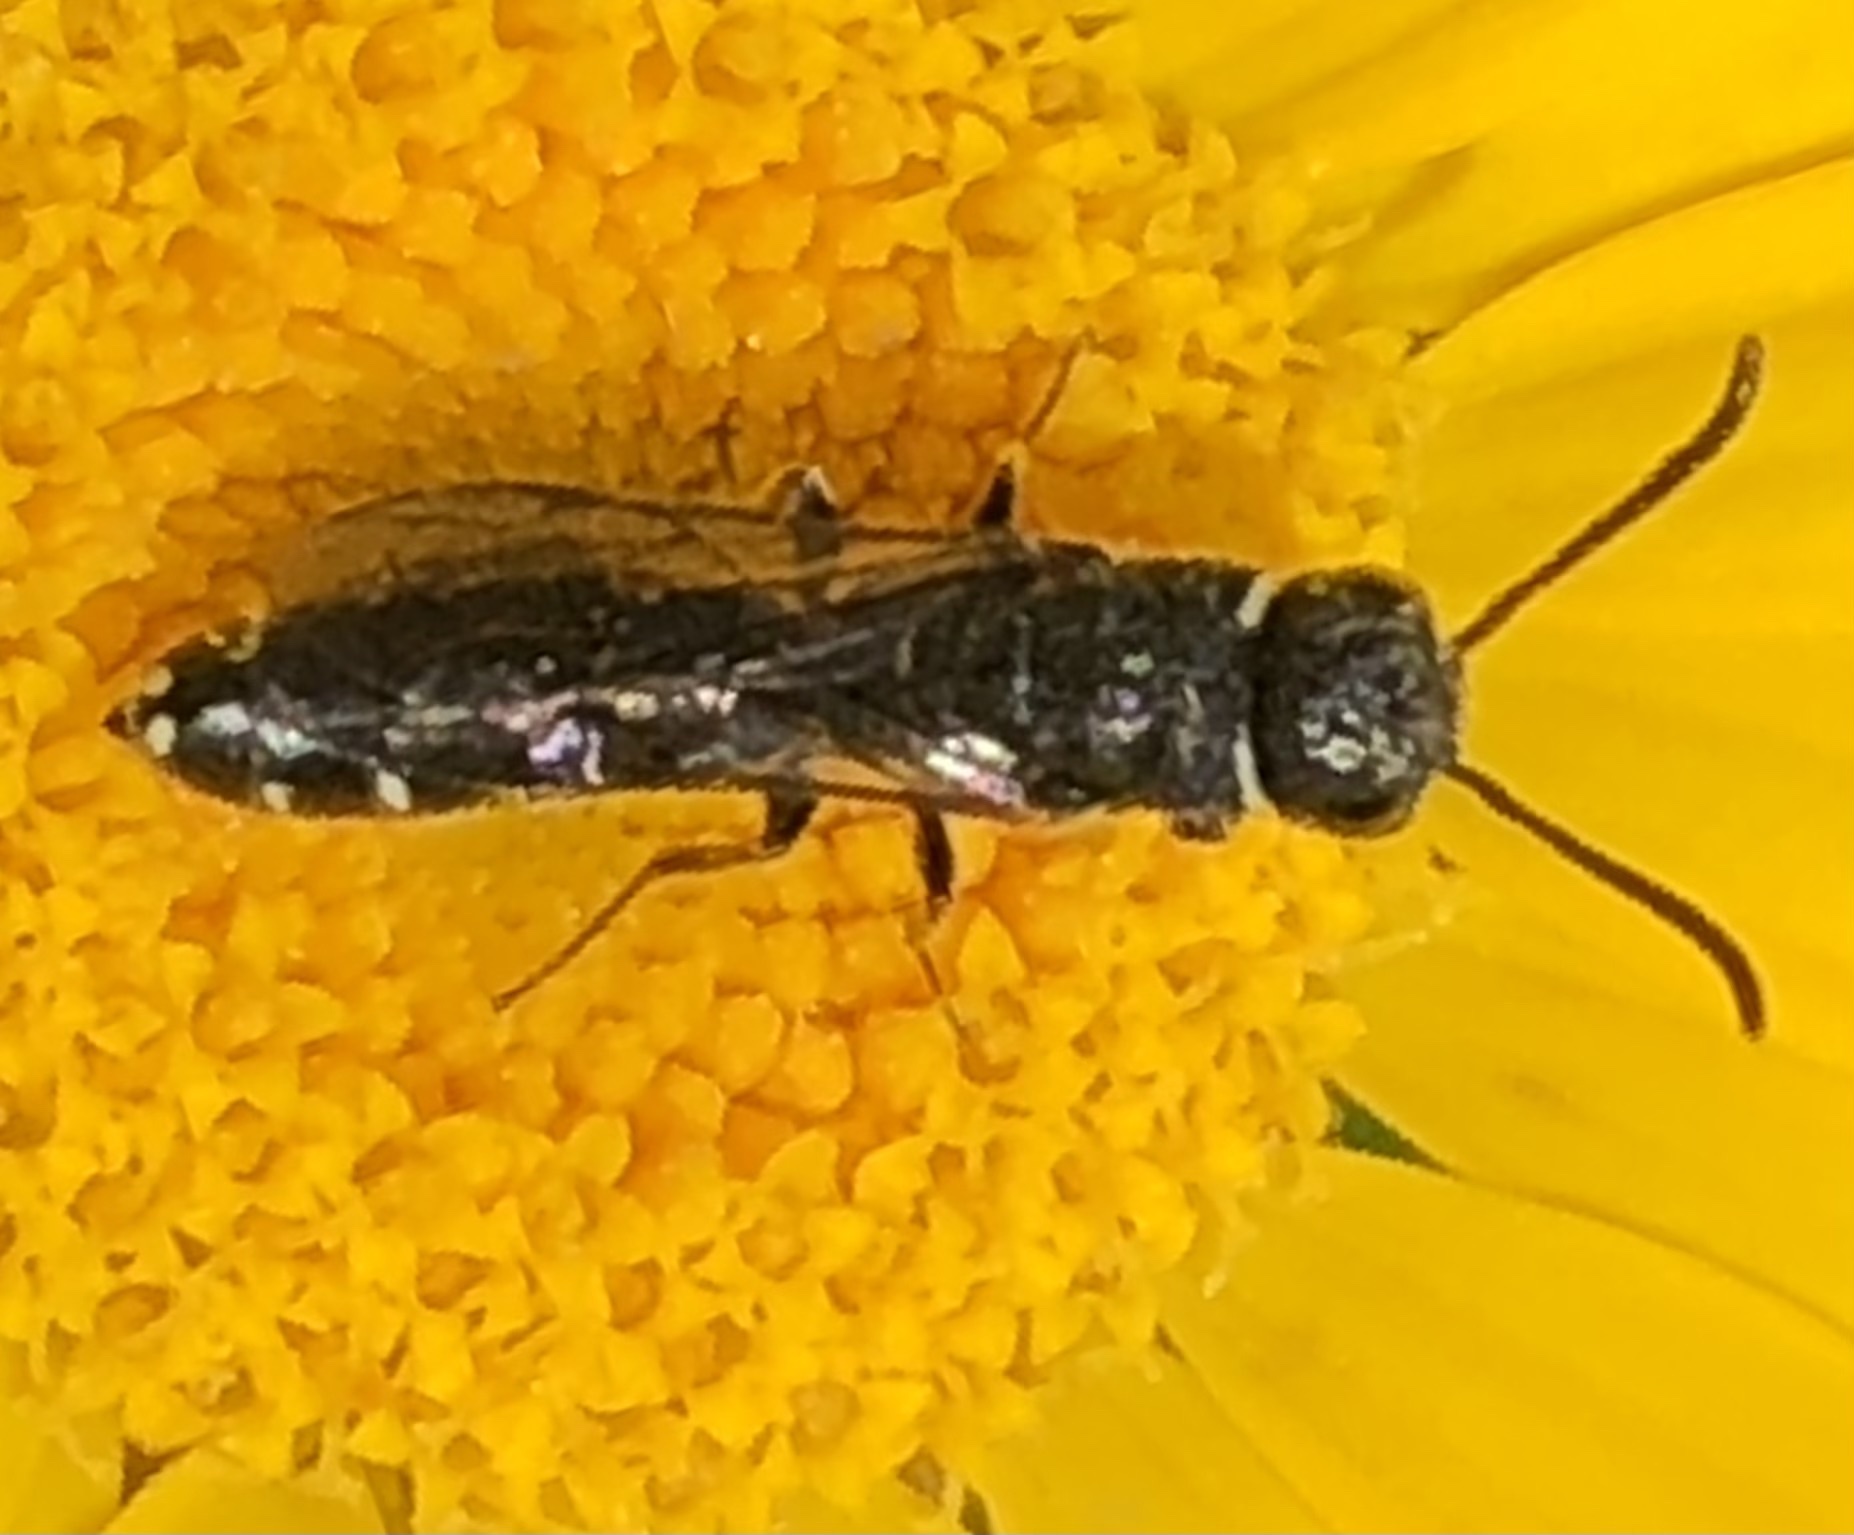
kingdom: Animalia
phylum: Arthropoda
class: Insecta
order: Hymenoptera
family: Sapygidae
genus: Sapygina
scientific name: Sapygina decemguttata
